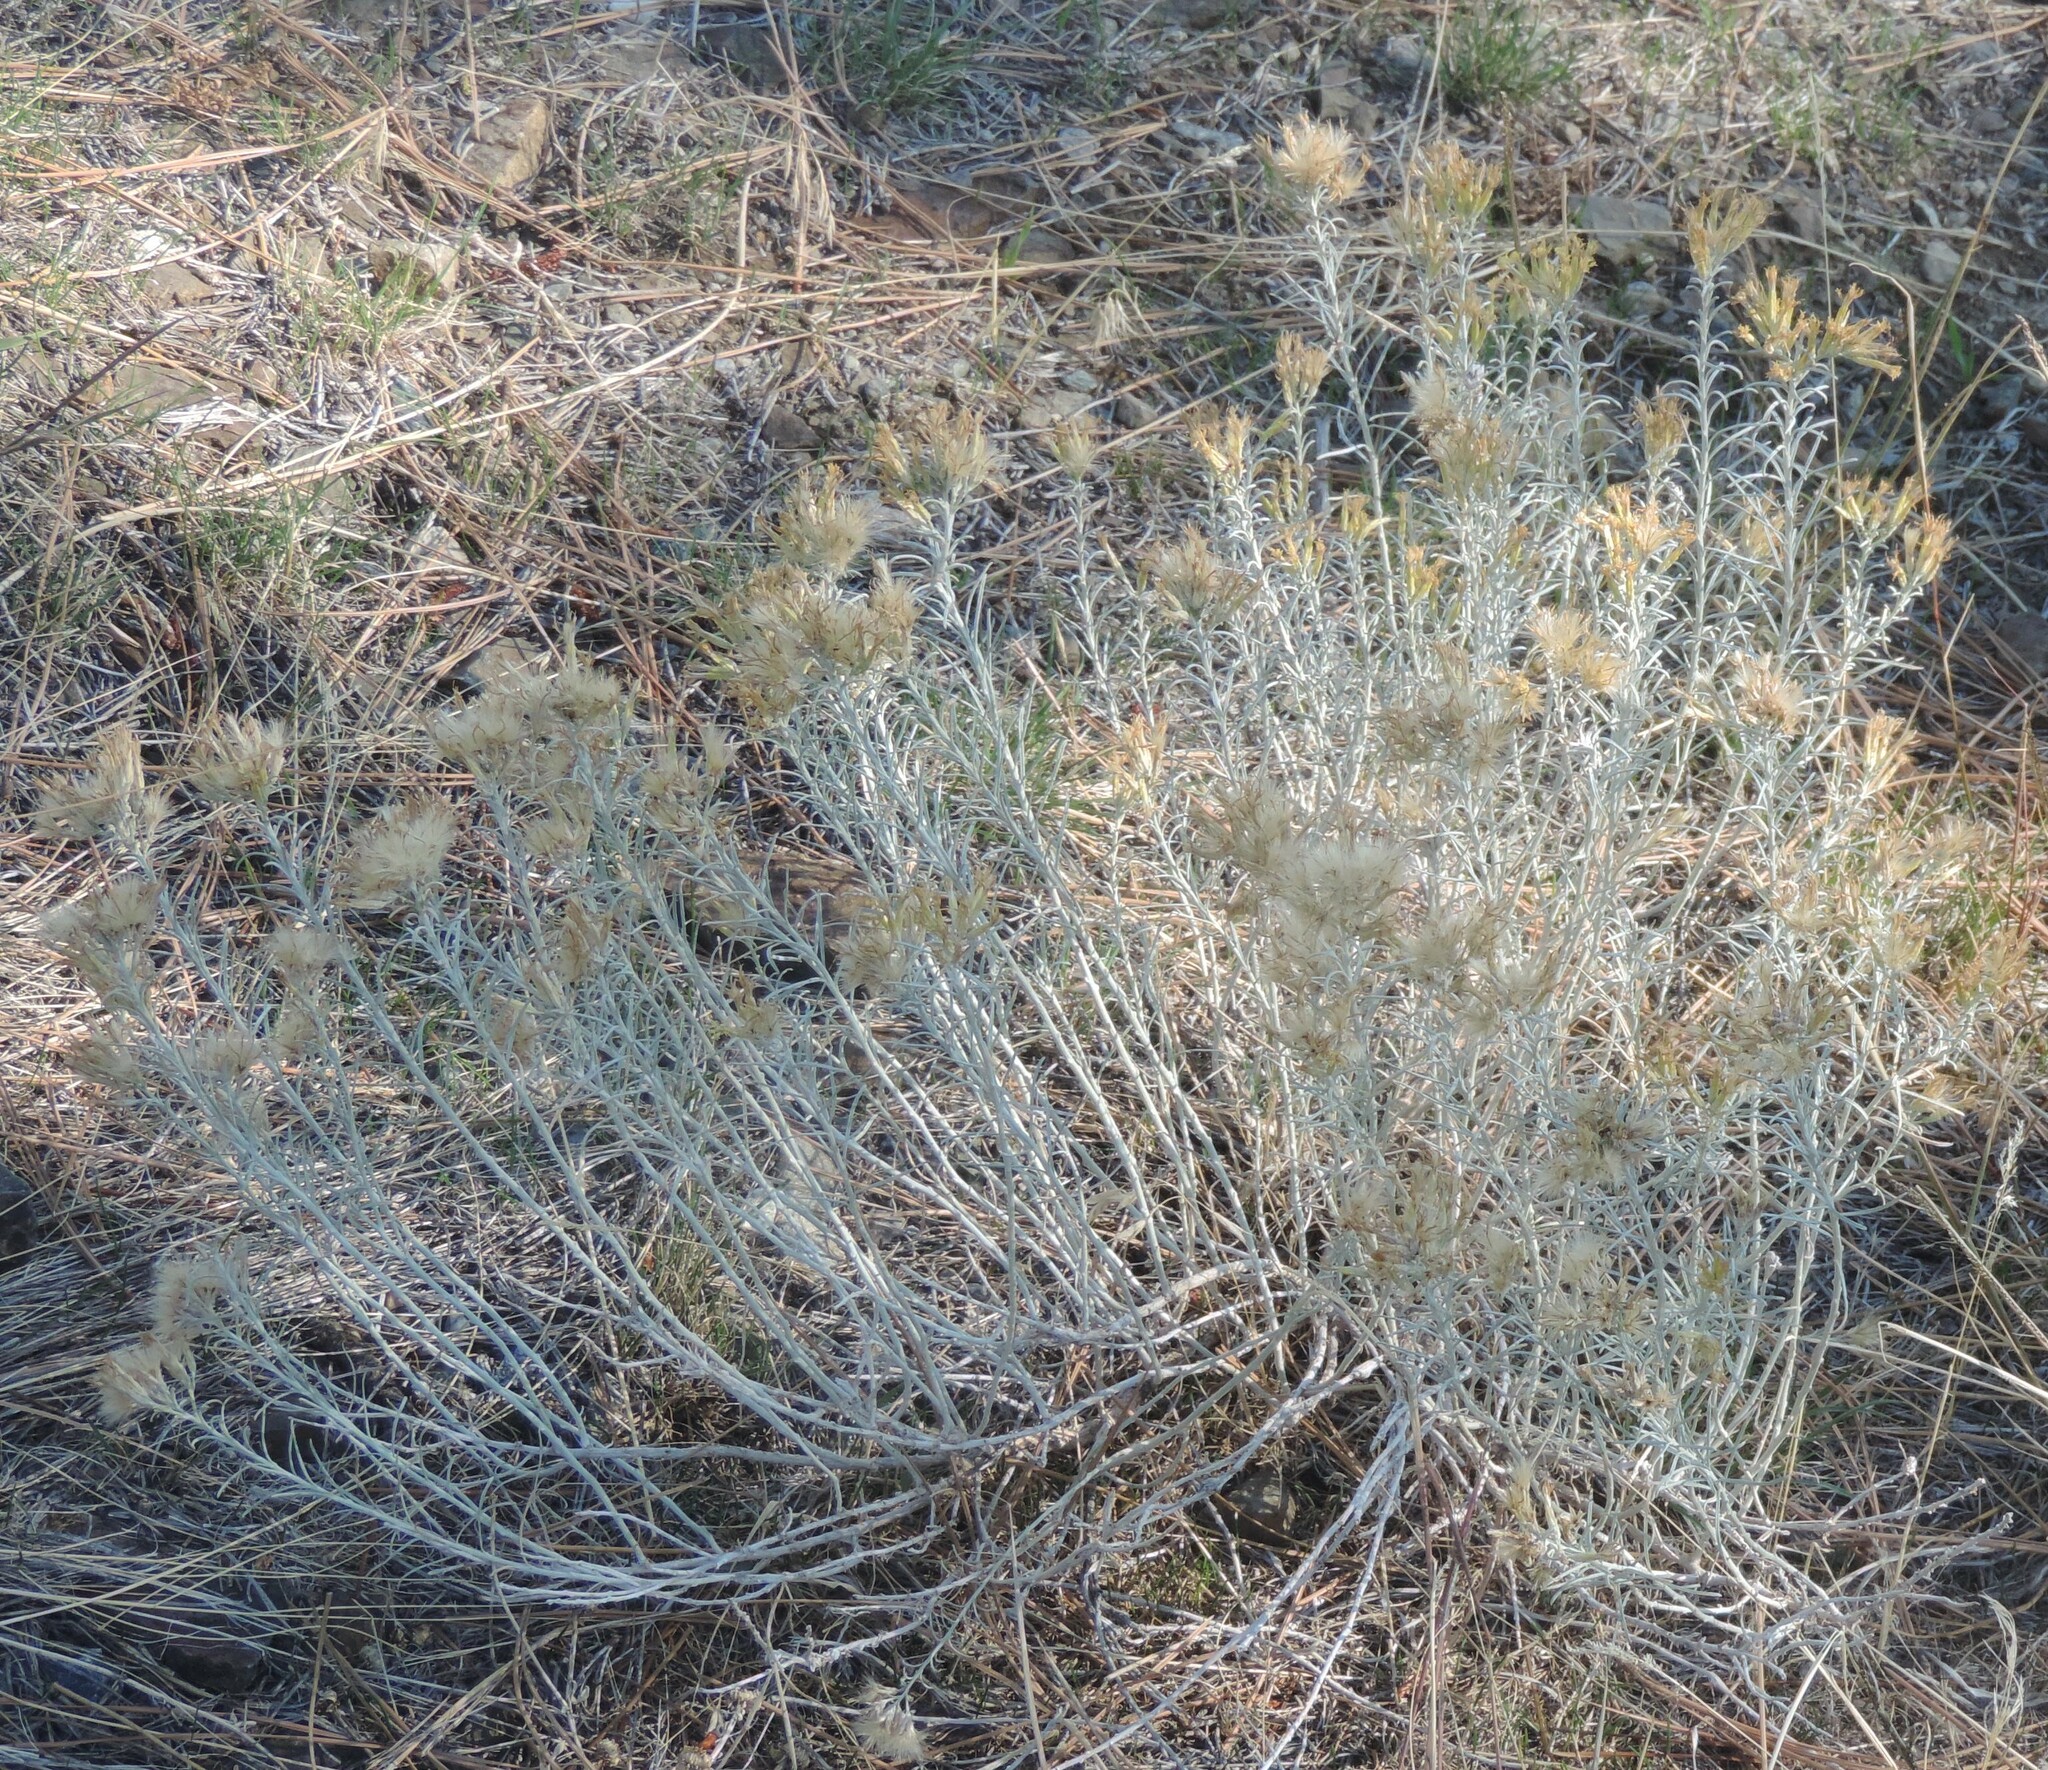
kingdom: Plantae
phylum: Tracheophyta
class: Magnoliopsida
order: Asterales
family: Asteraceae
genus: Ericameria
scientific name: Ericameria nauseosa
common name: Rubber rabbitbrush
